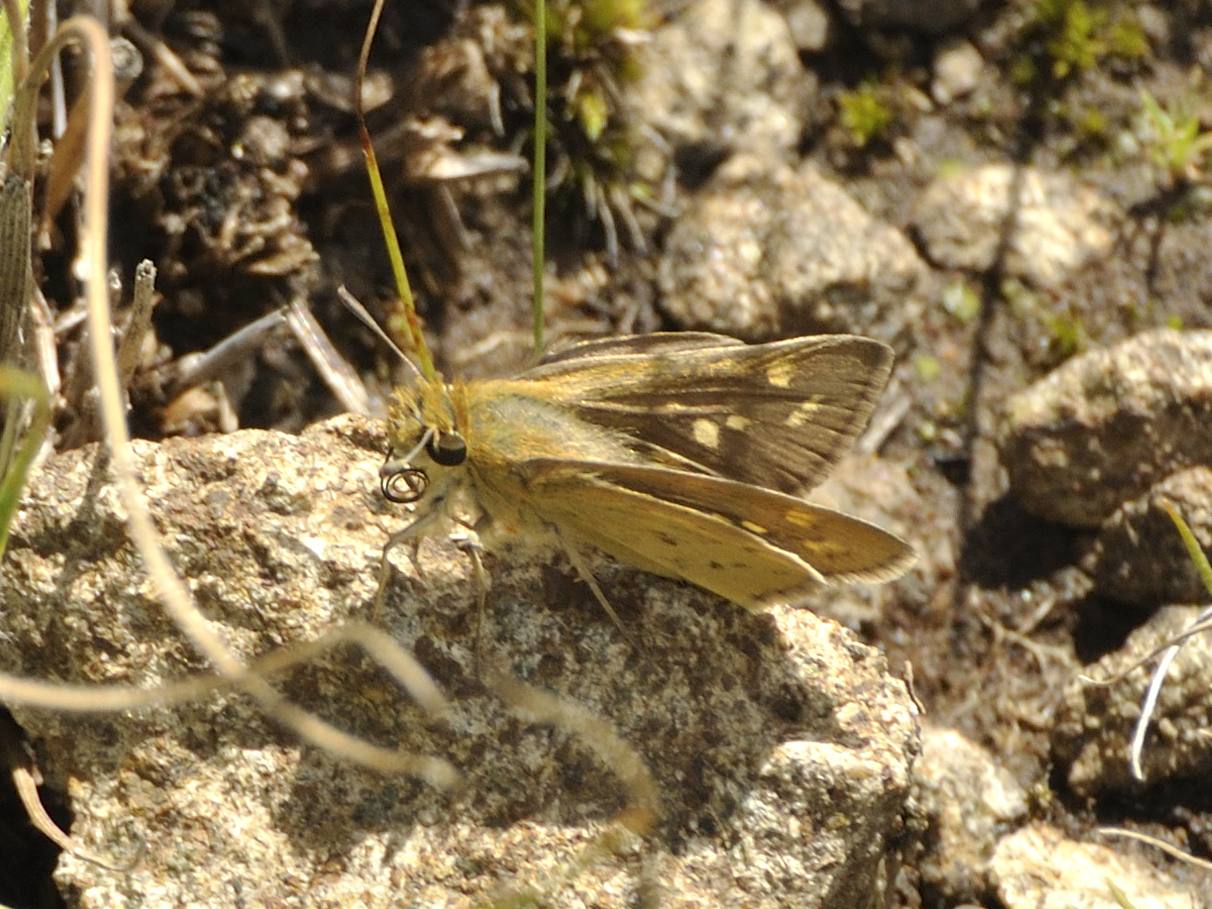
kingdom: Animalia
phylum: Arthropoda
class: Insecta
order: Hymenoptera
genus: Afrogenes
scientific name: Afrogenes
